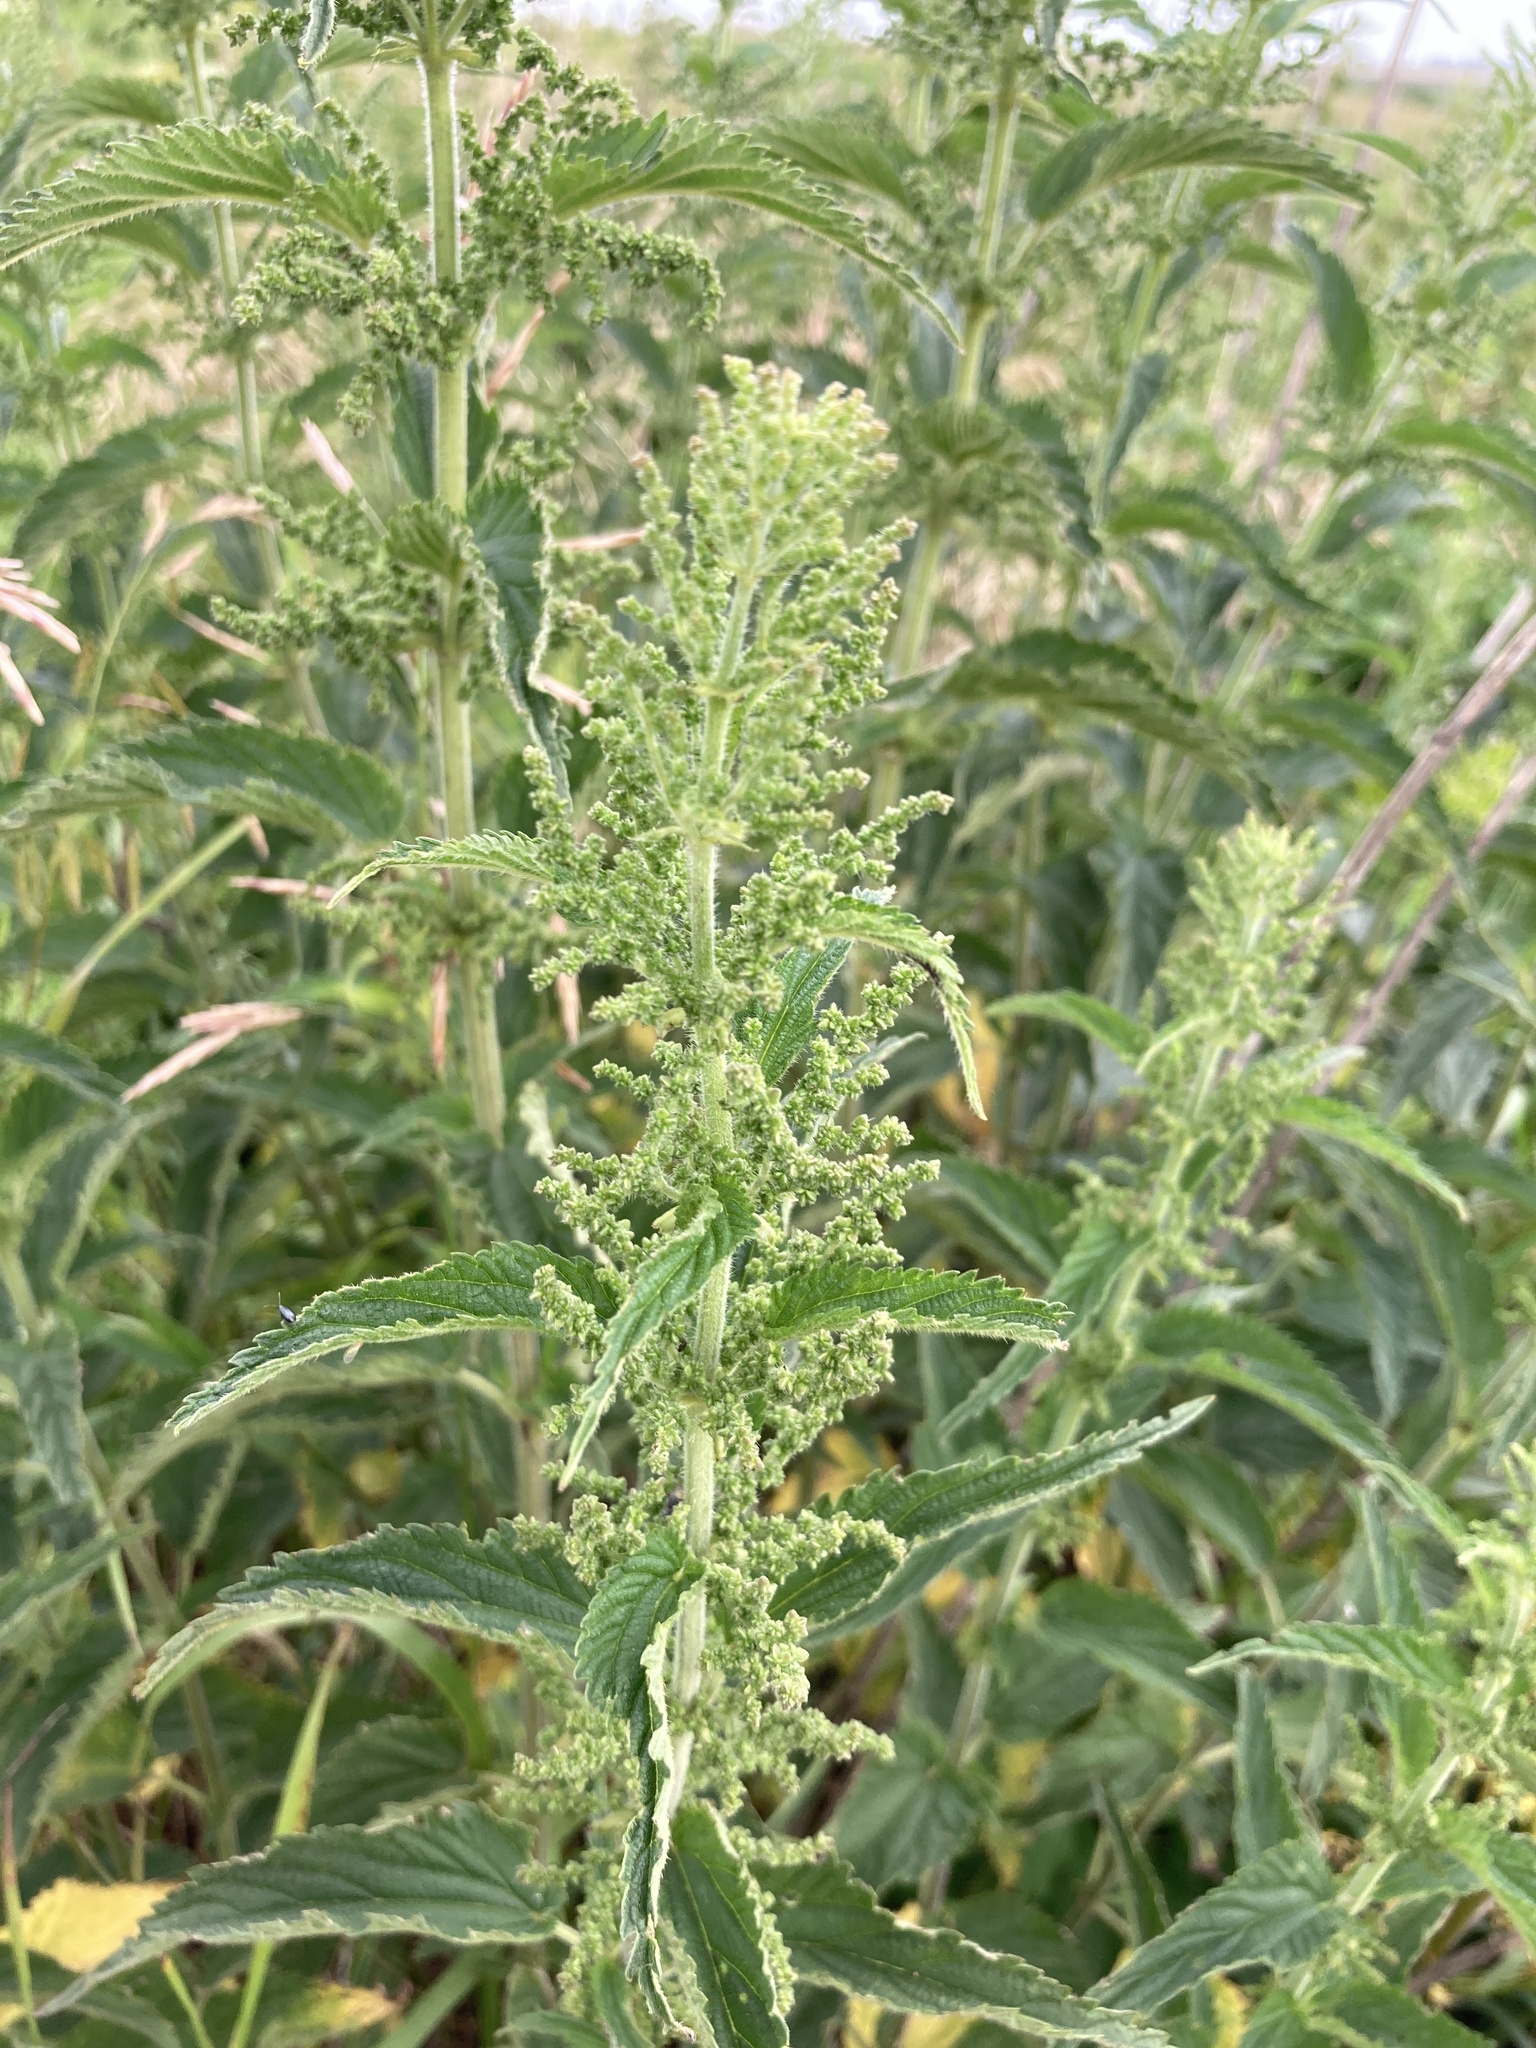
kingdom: Plantae
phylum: Tracheophyta
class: Magnoliopsida
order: Rosales
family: Urticaceae
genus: Urtica
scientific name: Urtica dioica
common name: Common nettle
